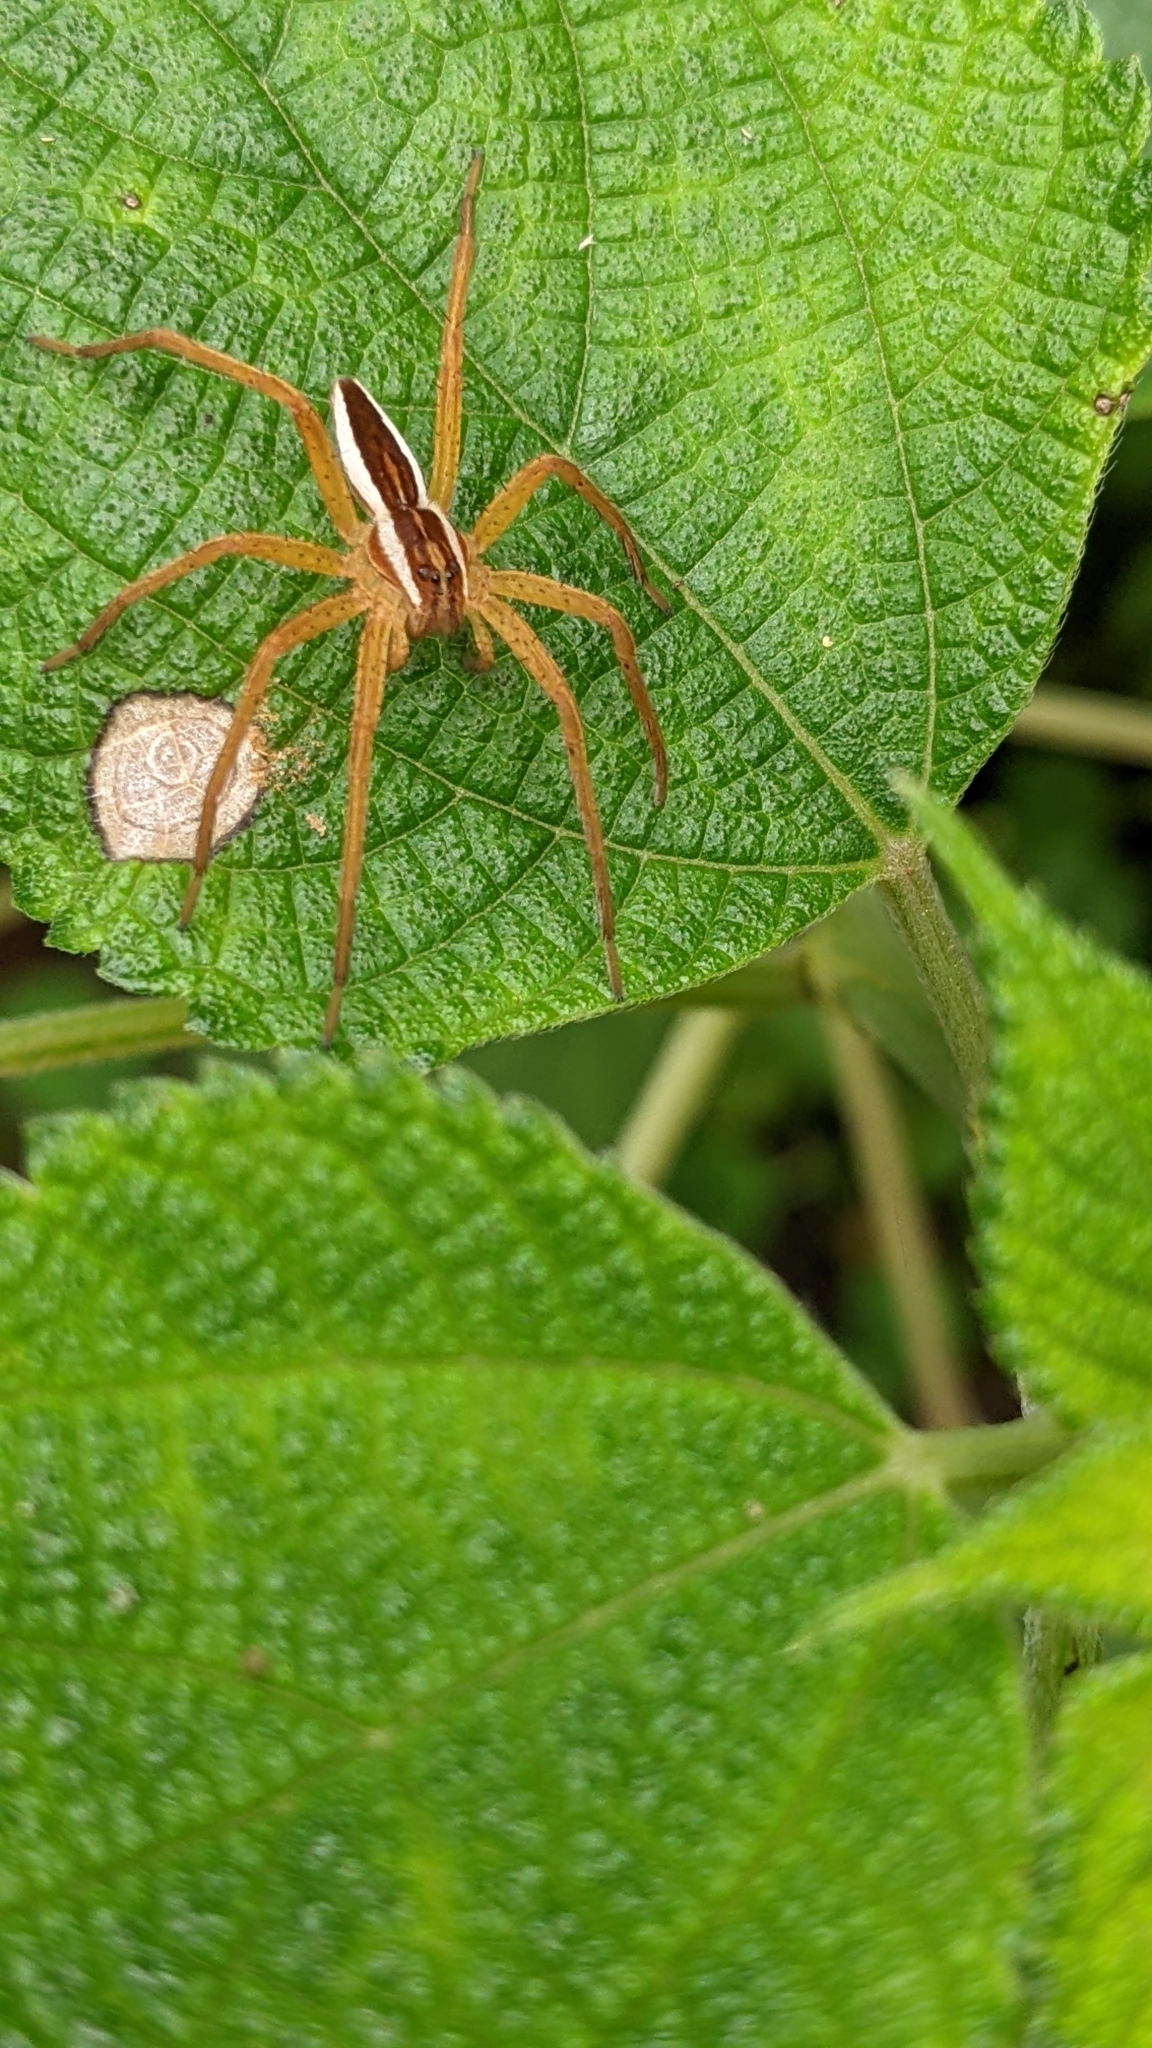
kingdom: Animalia
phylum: Arthropoda
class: Arachnida
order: Araneae
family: Pisauridae
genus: Dolomedes
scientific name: Dolomedes sulfureus
